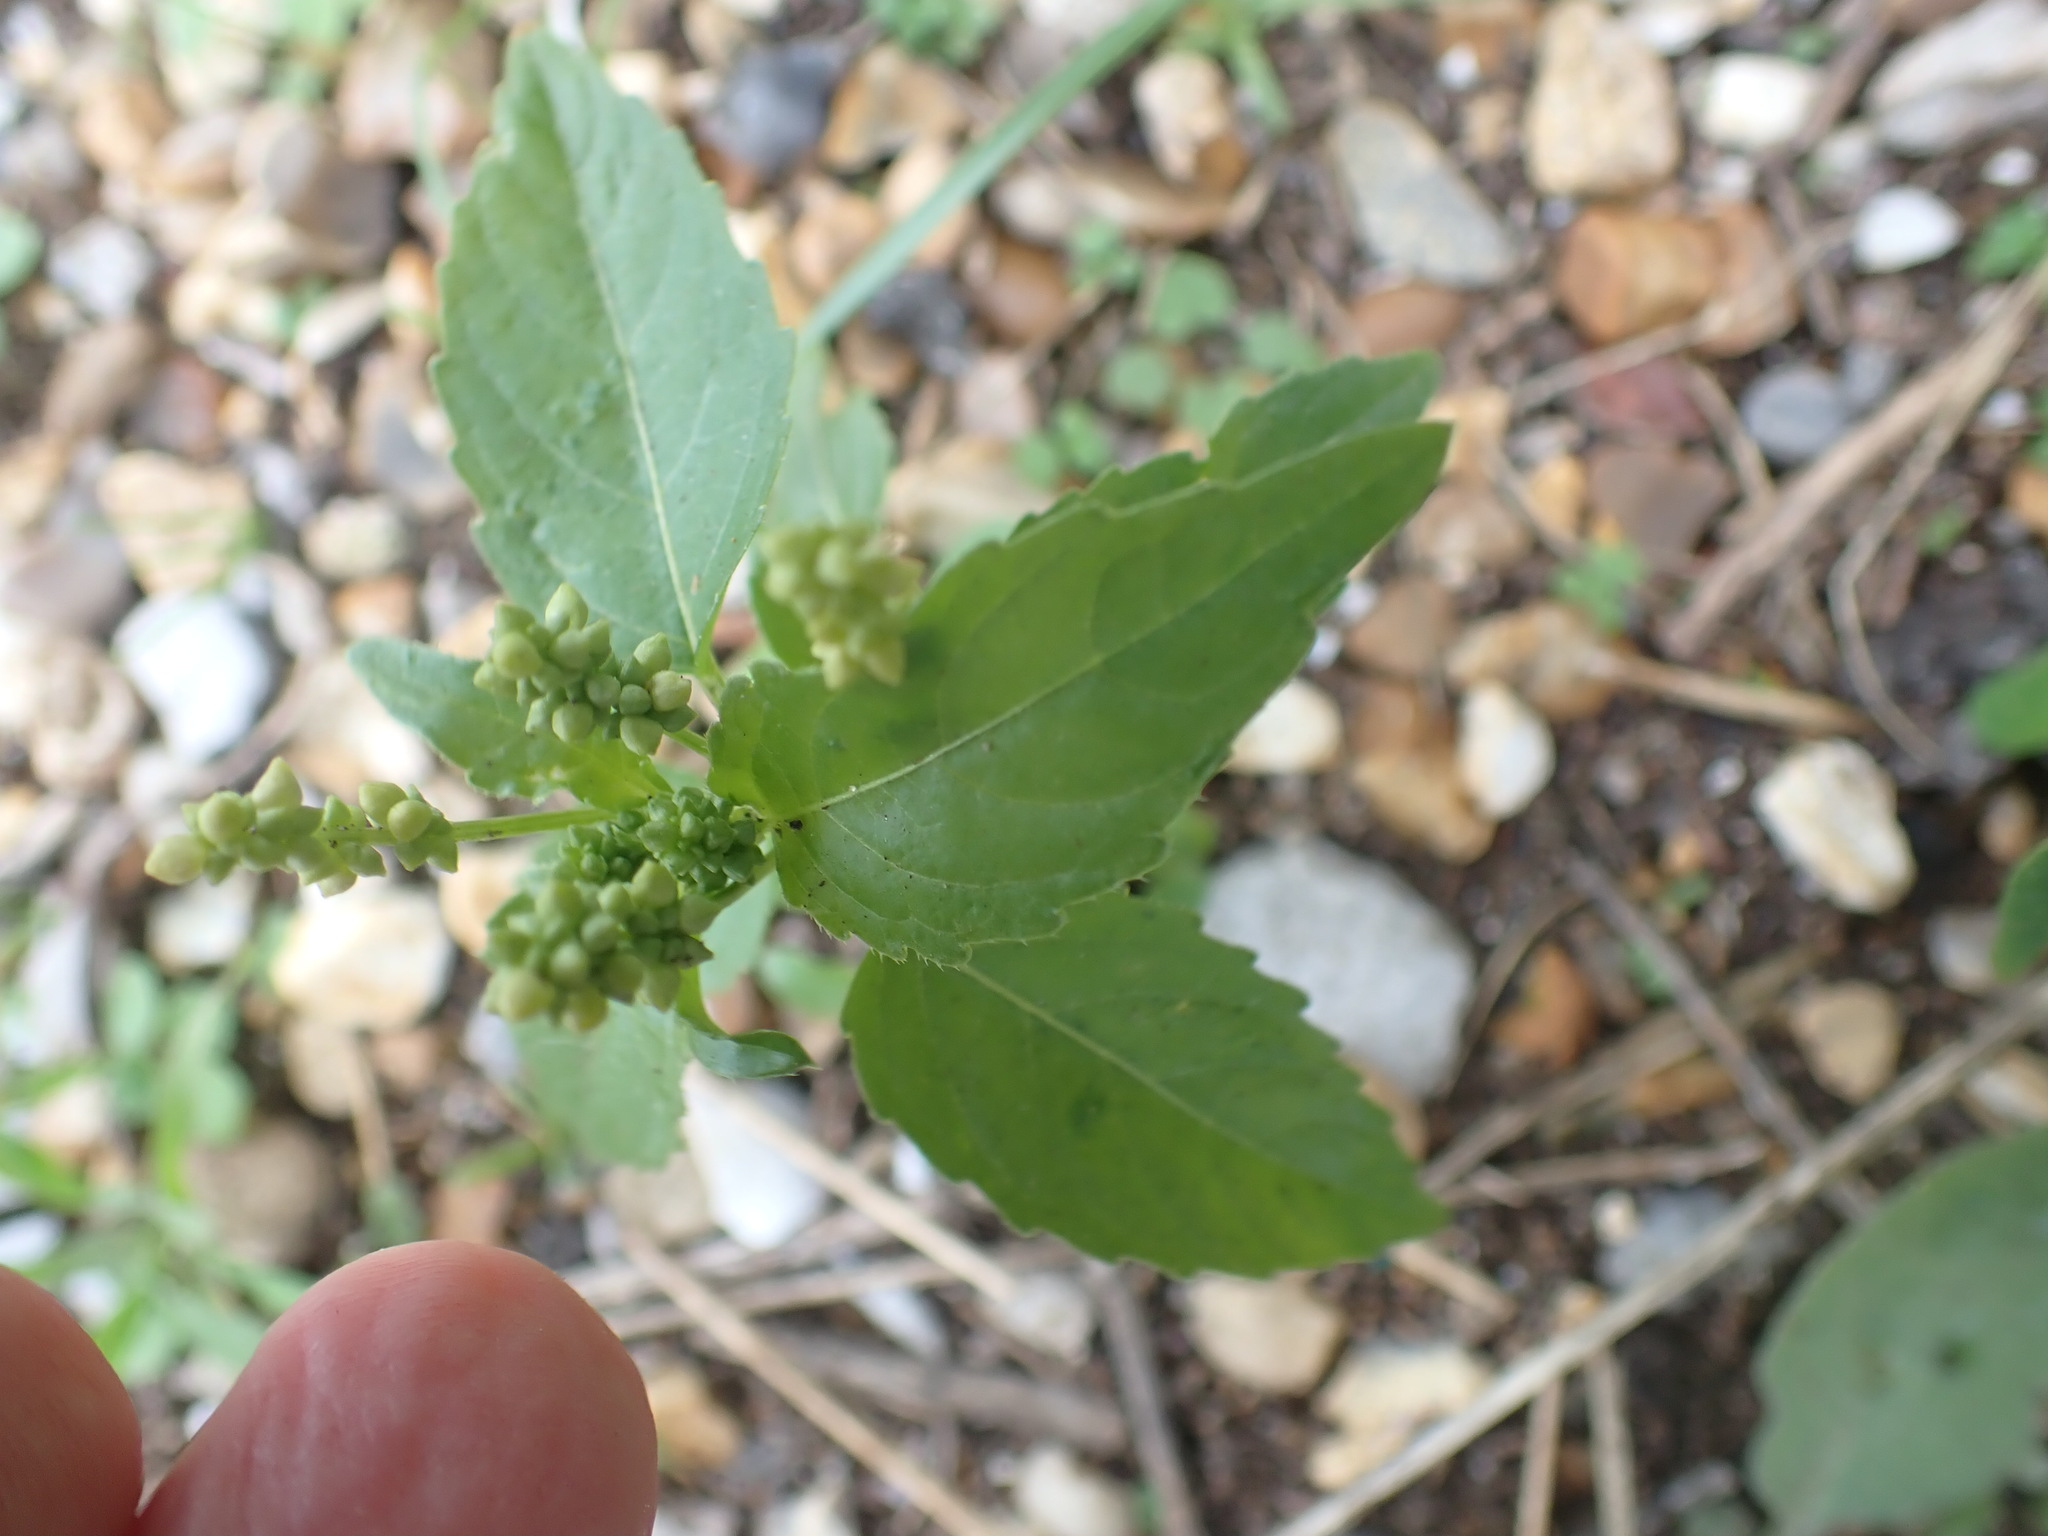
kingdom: Plantae
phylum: Tracheophyta
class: Magnoliopsida
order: Malpighiales
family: Euphorbiaceae
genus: Mercurialis
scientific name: Mercurialis annua
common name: Annual mercury
